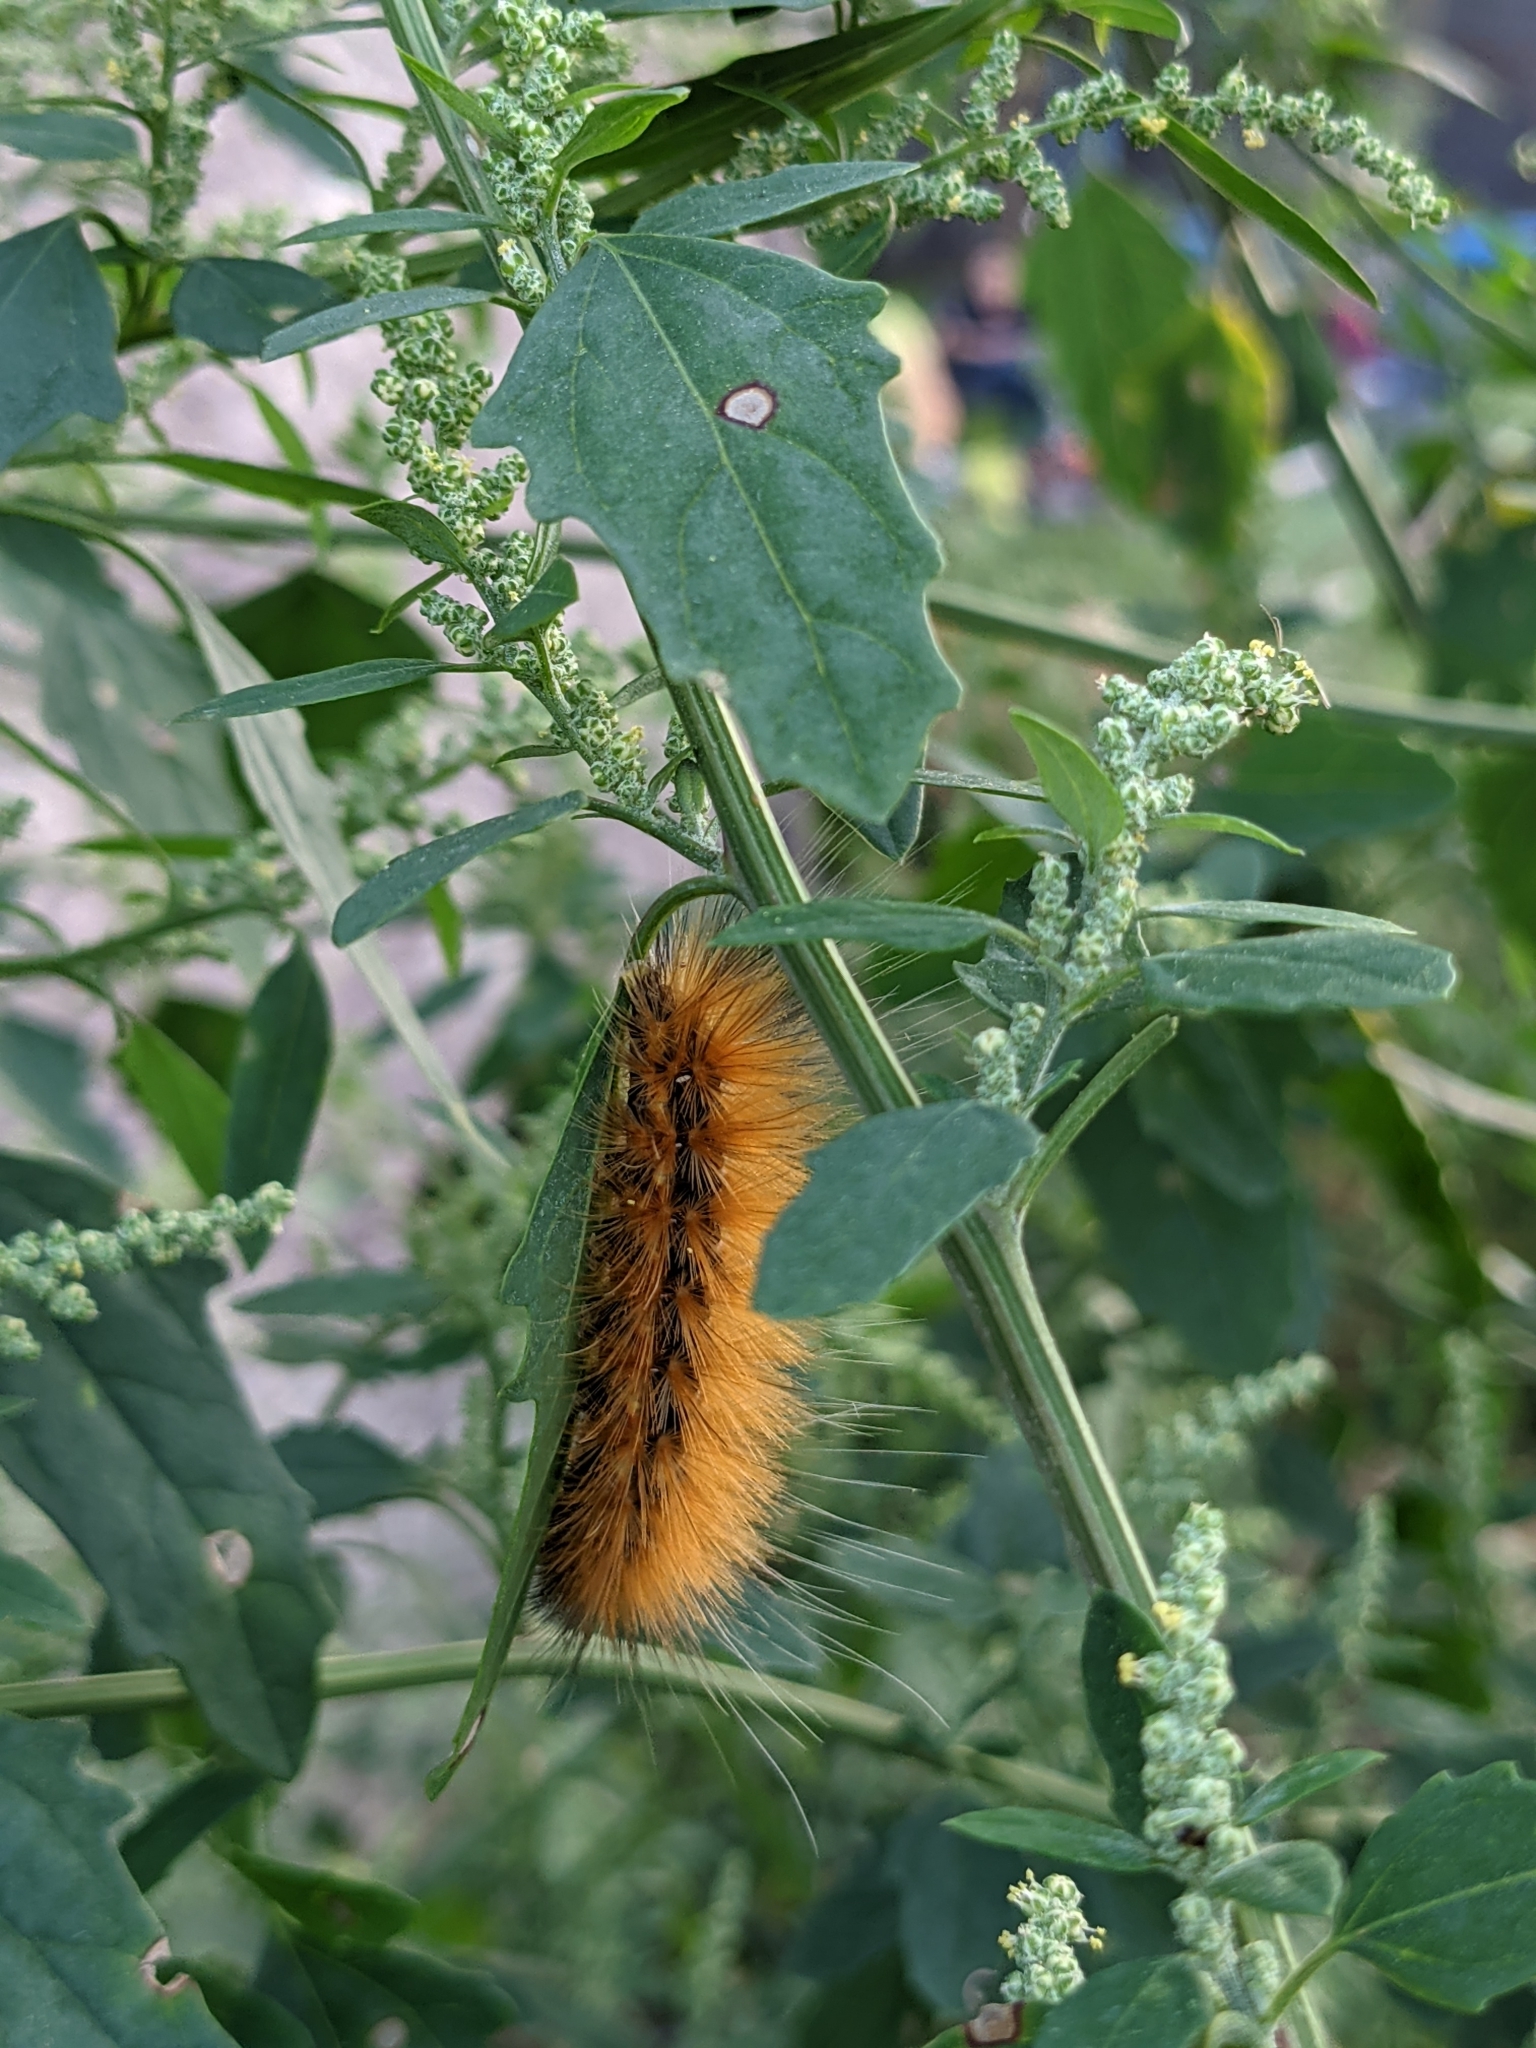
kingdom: Animalia
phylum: Arthropoda
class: Insecta
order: Lepidoptera
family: Erebidae
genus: Spilosoma
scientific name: Spilosoma virginica
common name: Virginia tiger moth
